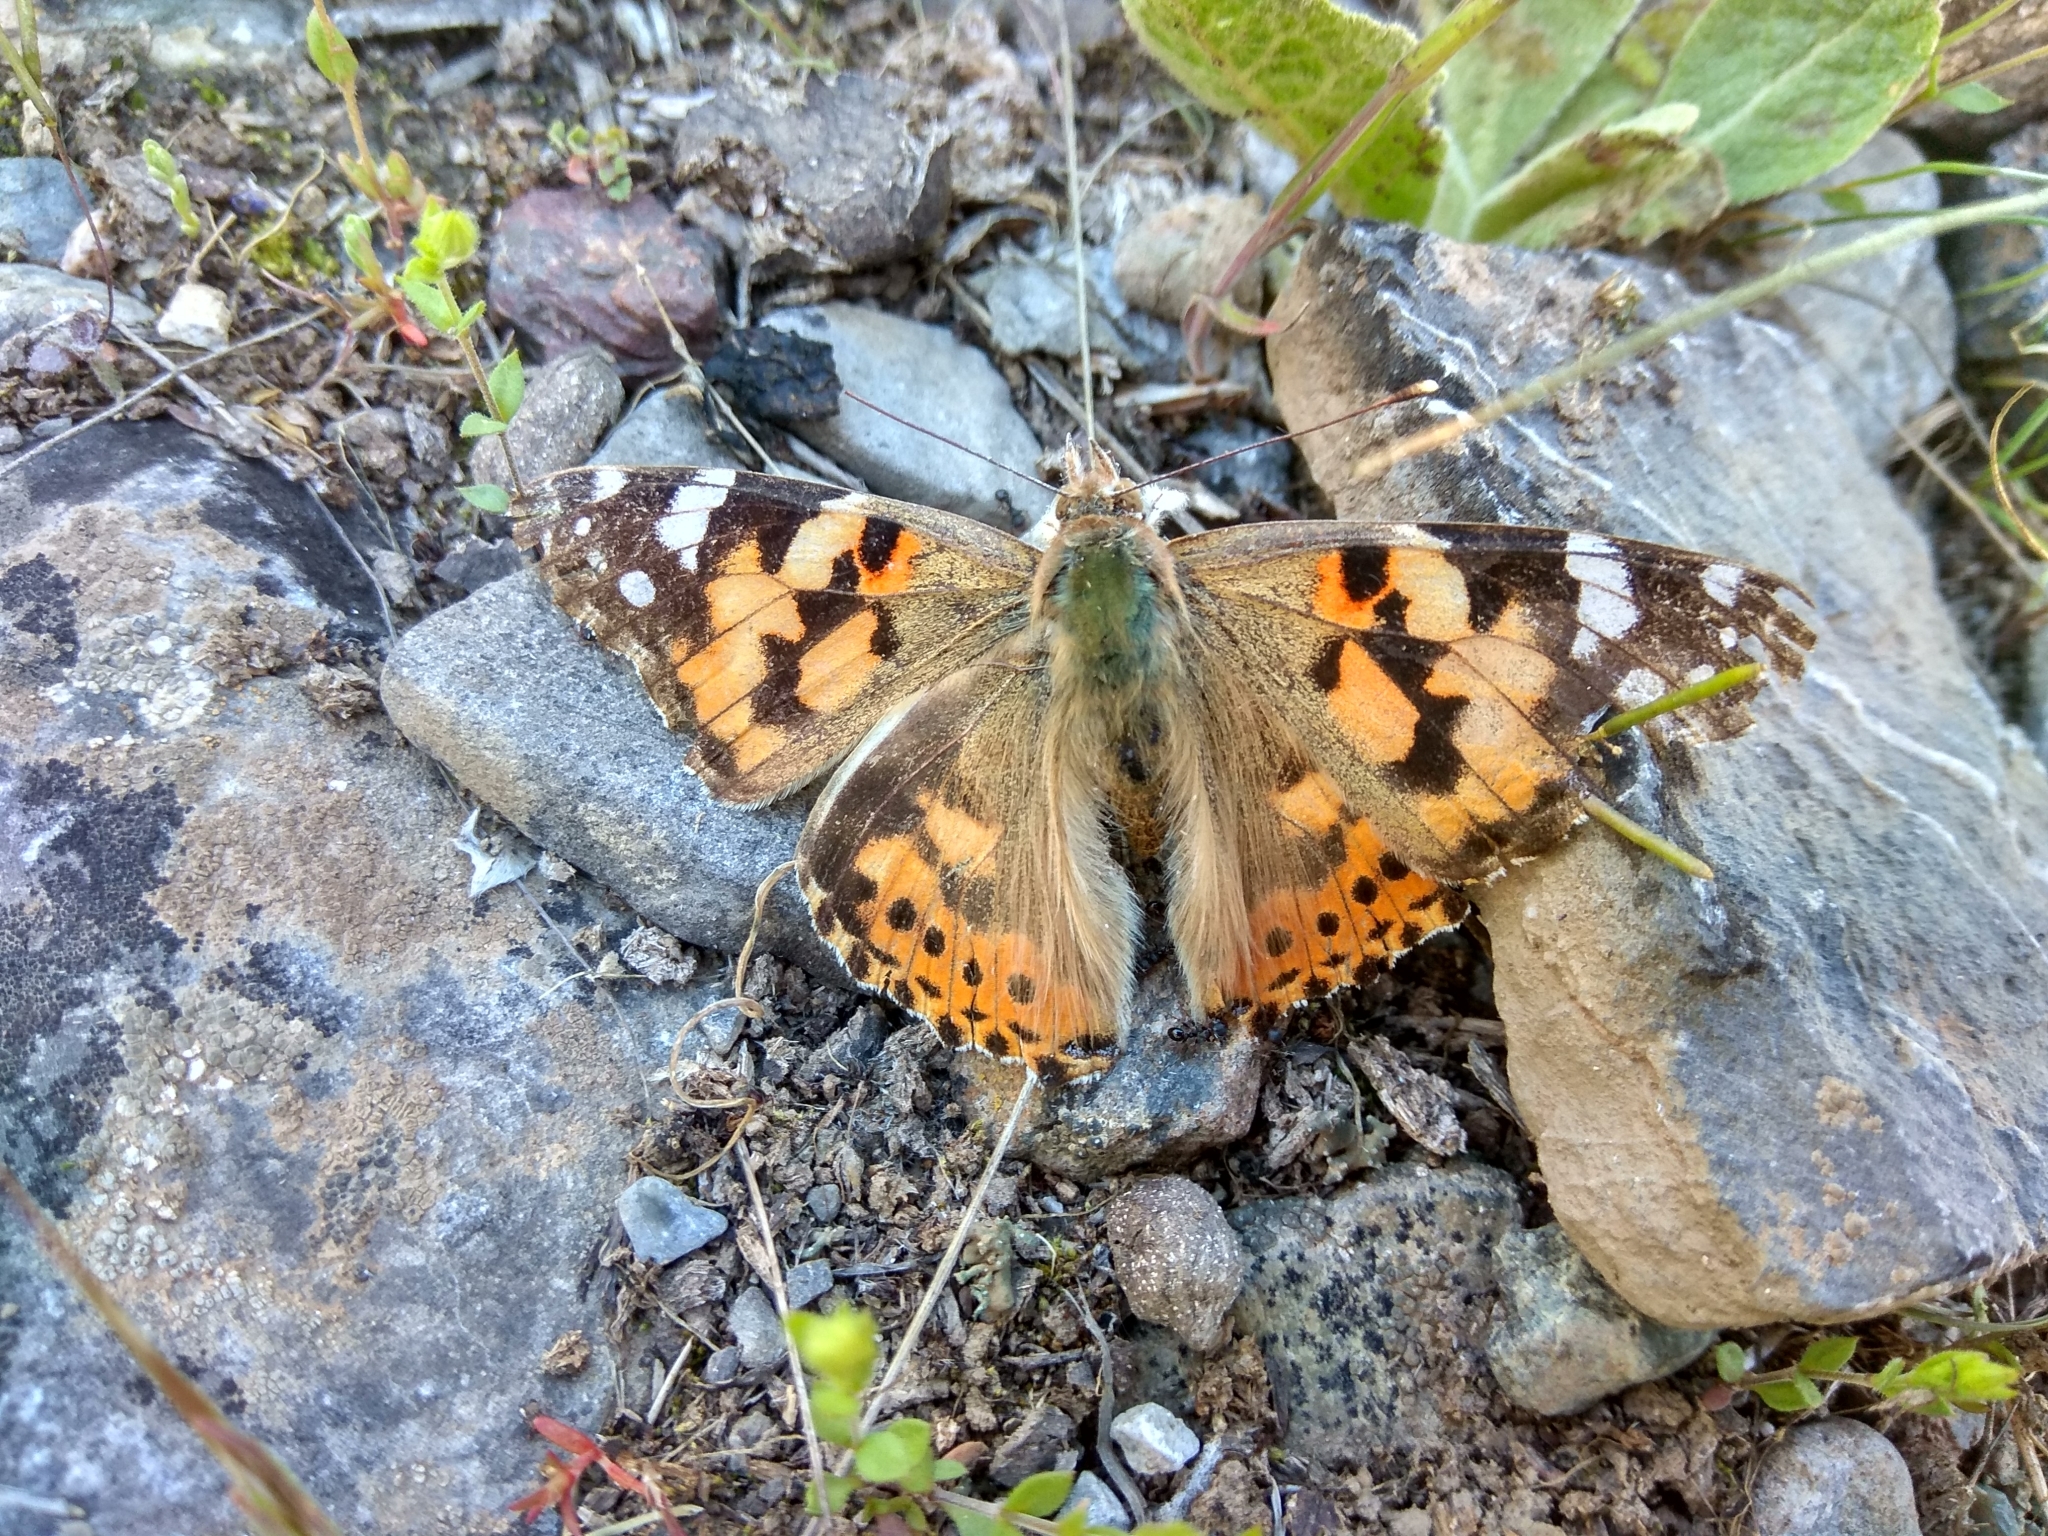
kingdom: Animalia
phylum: Arthropoda
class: Insecta
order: Lepidoptera
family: Nymphalidae
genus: Vanessa
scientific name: Vanessa cardui
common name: Painted lady
